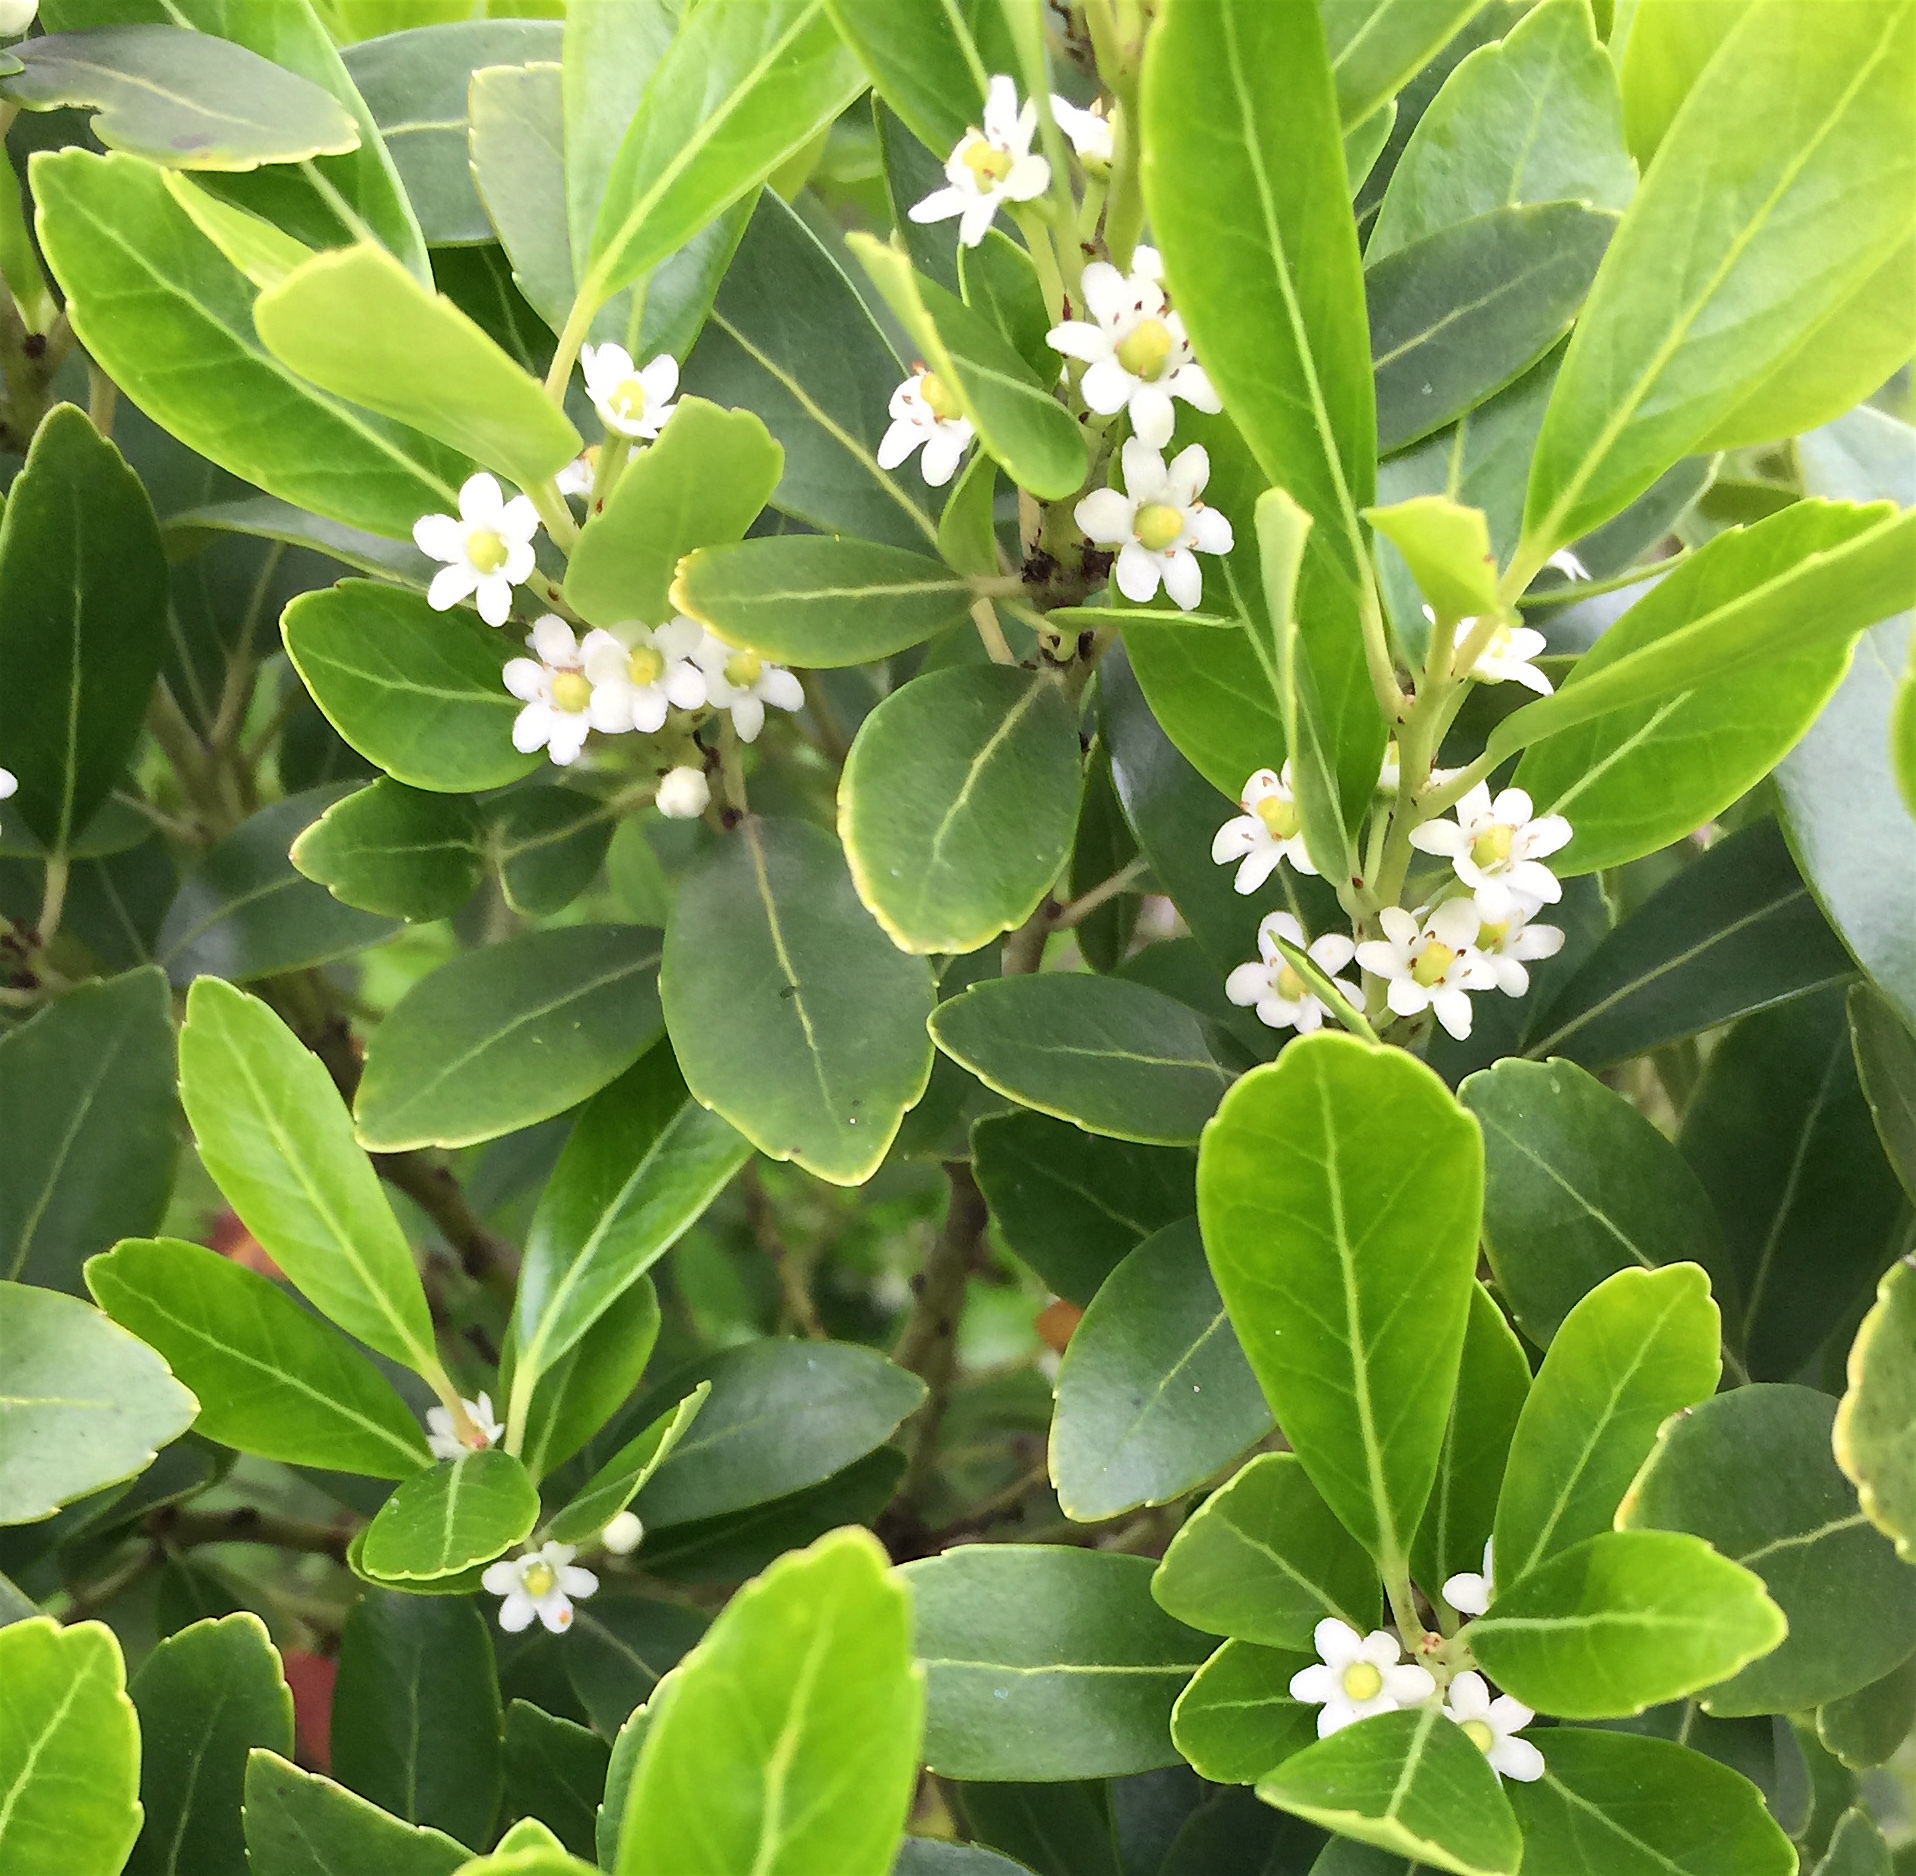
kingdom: Plantae
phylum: Tracheophyta
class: Magnoliopsida
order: Aquifoliales
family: Aquifoliaceae
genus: Ilex
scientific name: Ilex glabra
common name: Bitter gallberry
